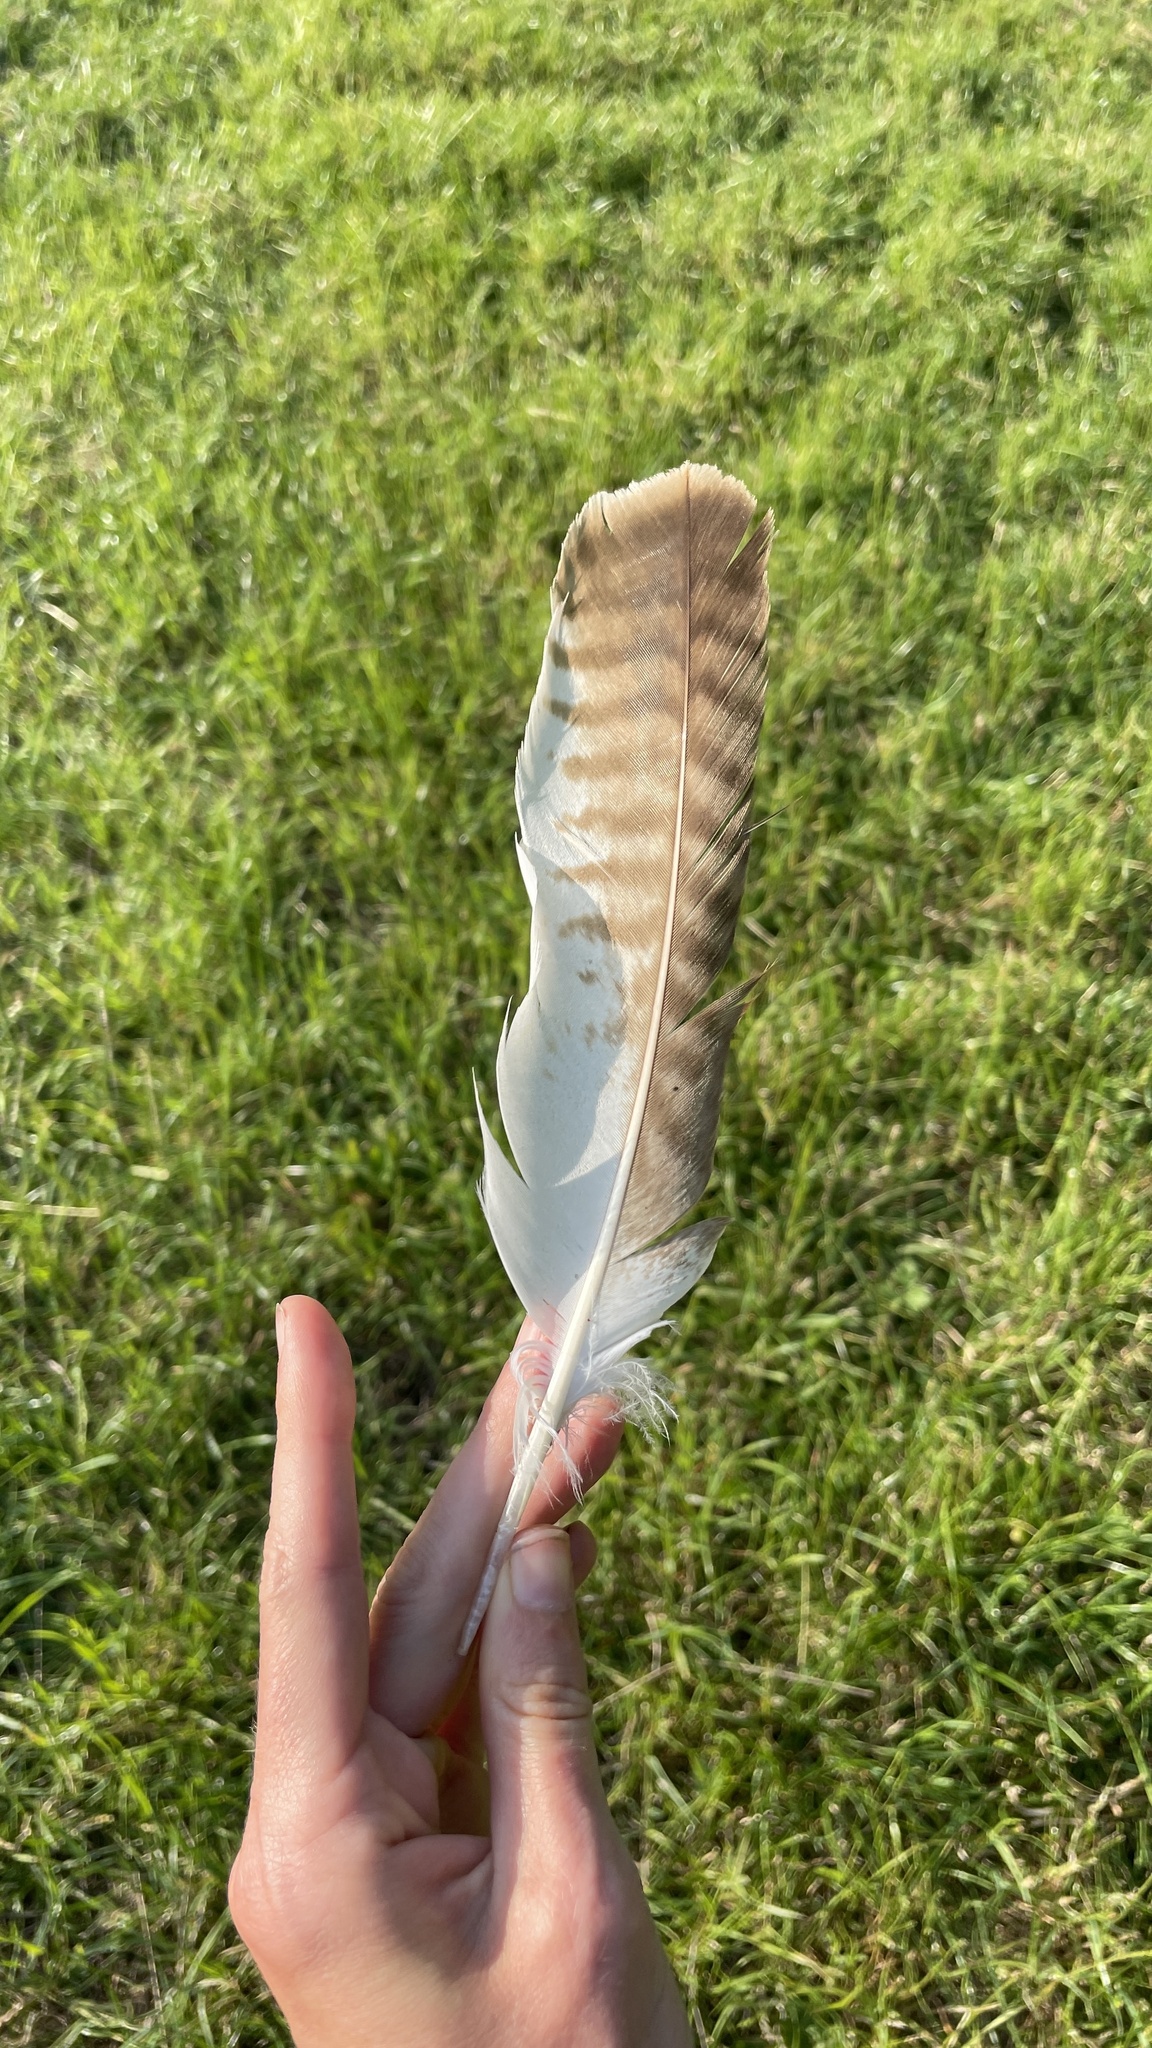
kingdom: Animalia
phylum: Chordata
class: Aves
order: Accipitriformes
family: Accipitridae
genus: Buteo
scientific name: Buteo buteo
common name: Common buzzard
